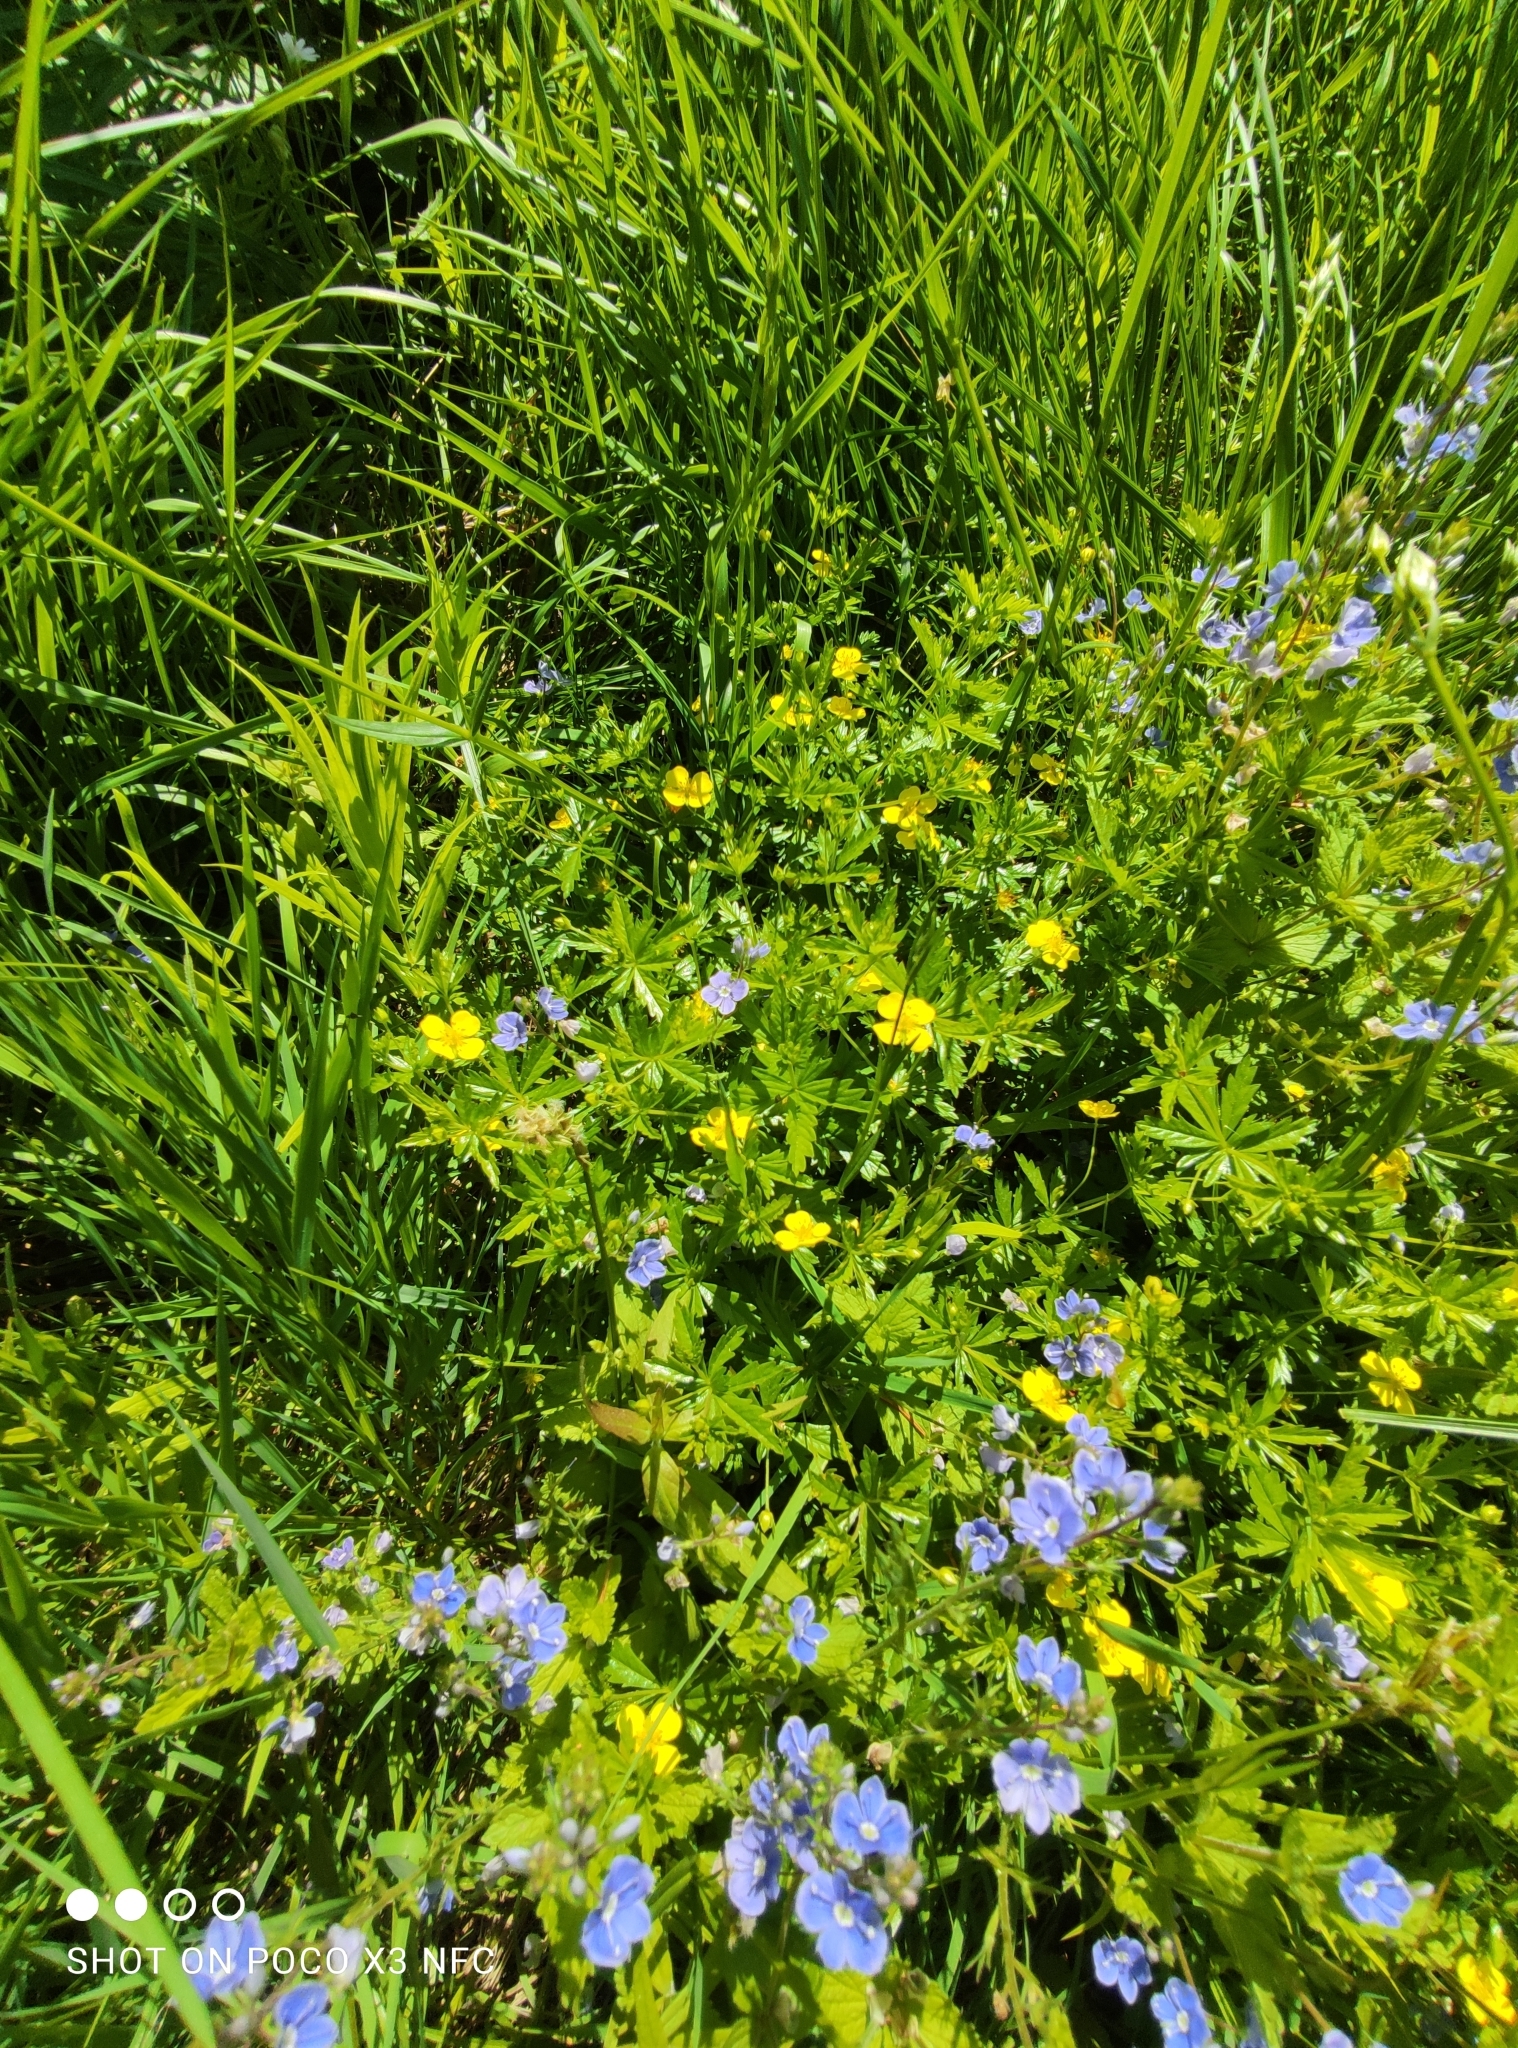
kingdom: Plantae
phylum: Tracheophyta
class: Magnoliopsida
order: Rosales
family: Rosaceae
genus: Potentilla
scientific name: Potentilla erecta
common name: Tormentil
